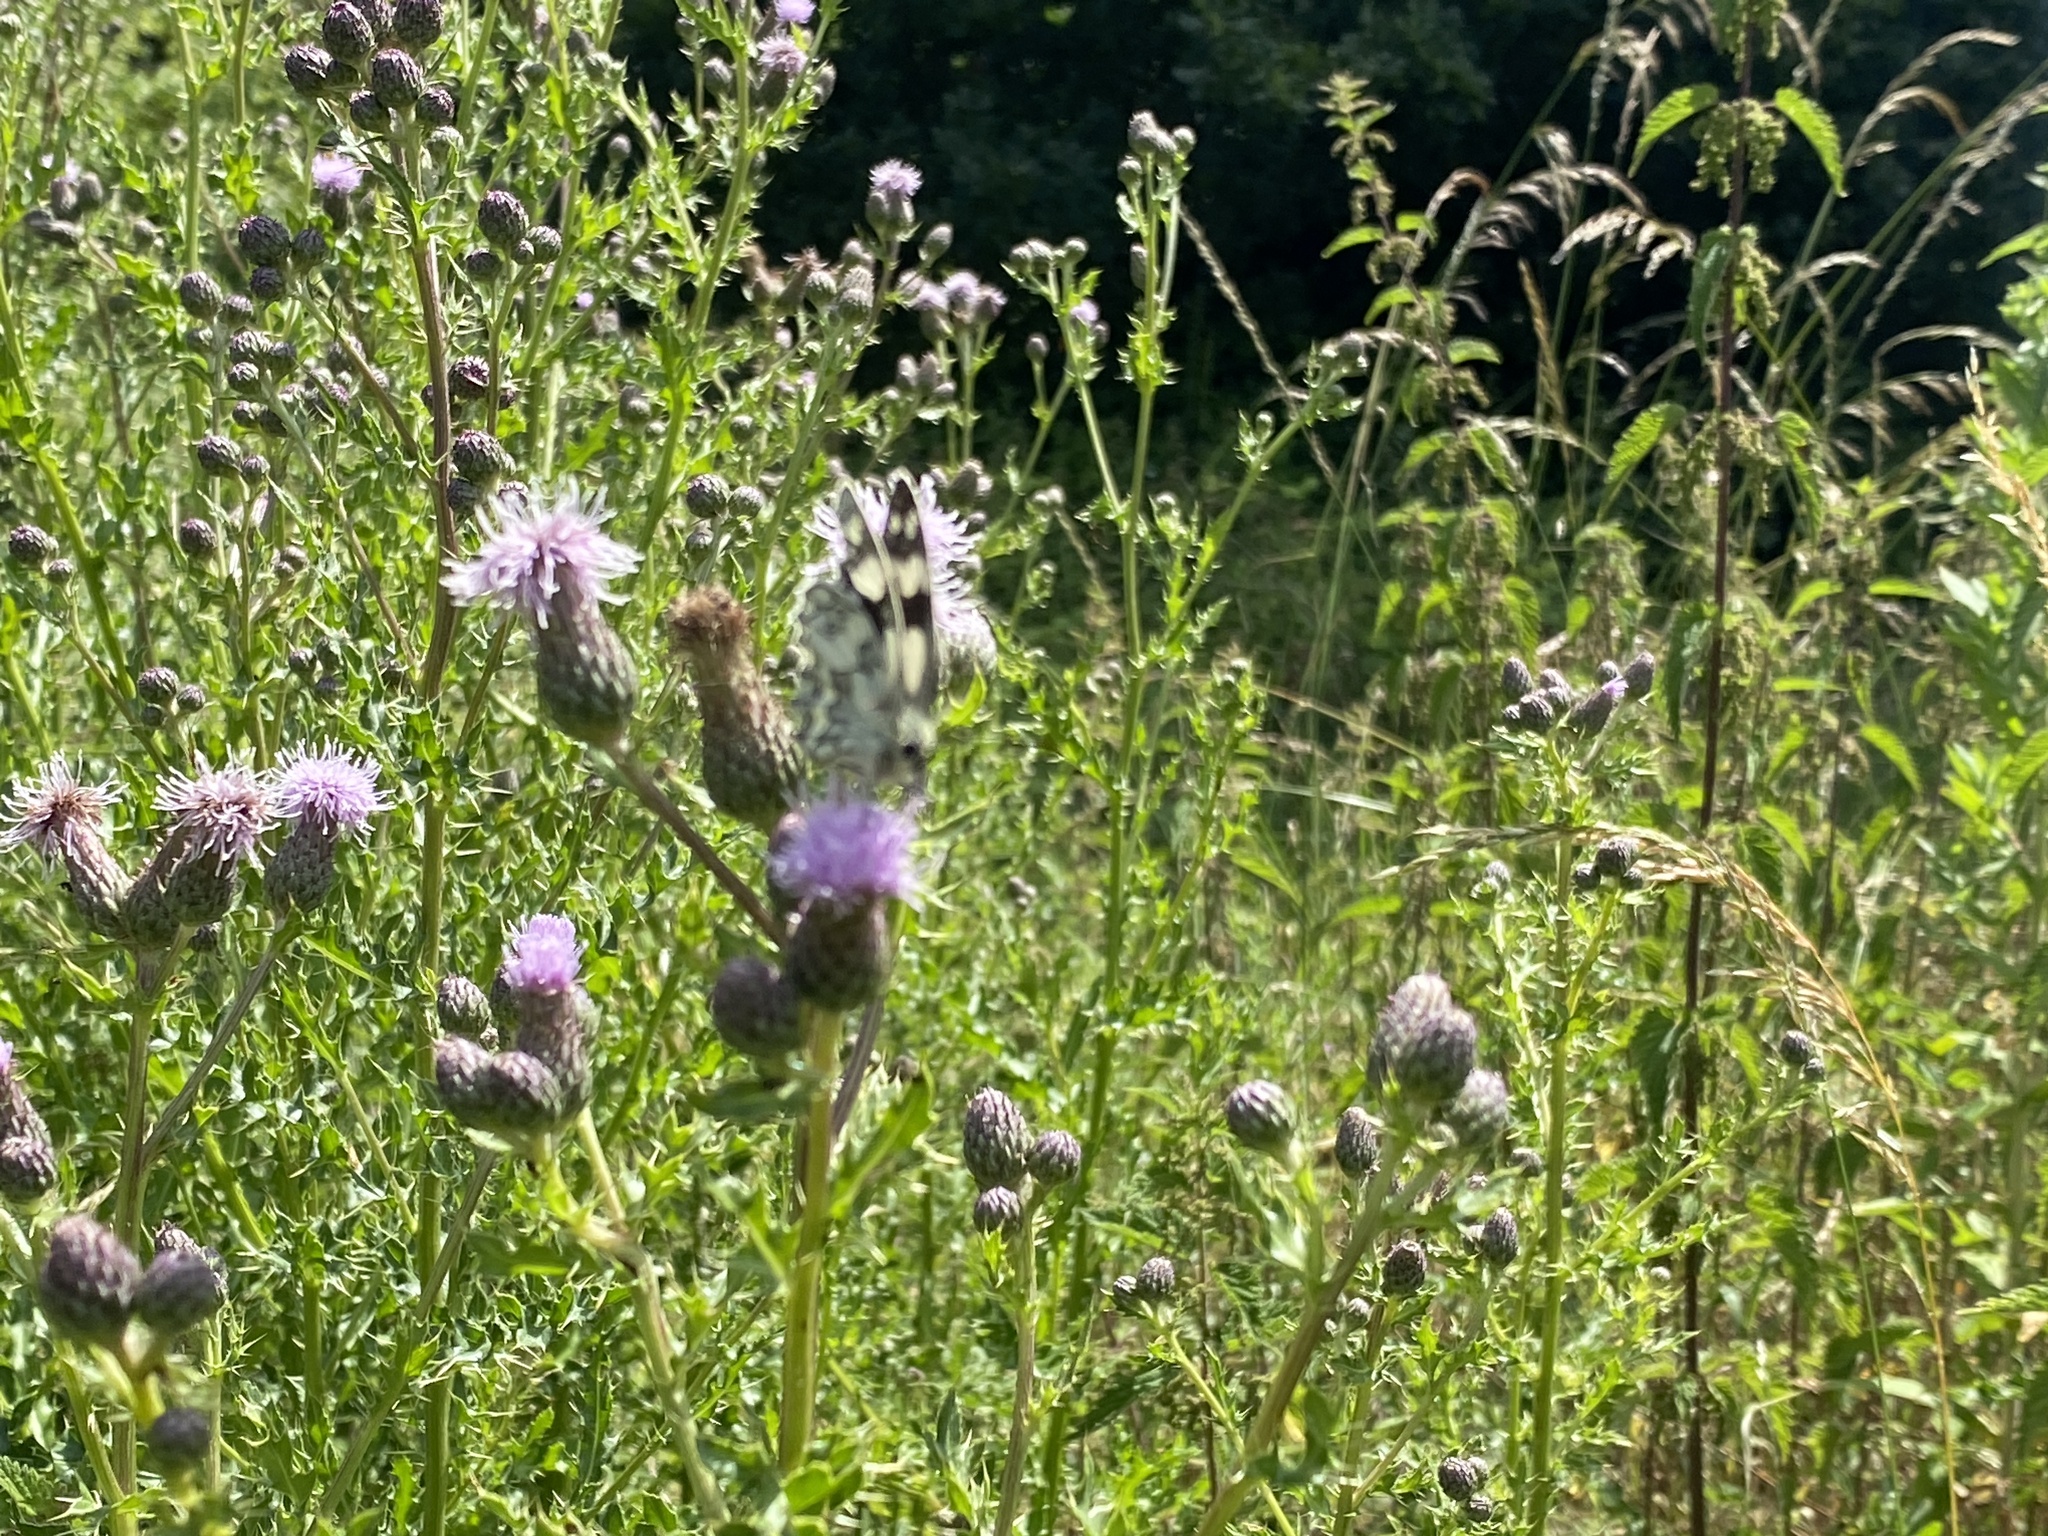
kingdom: Animalia
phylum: Arthropoda
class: Insecta
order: Lepidoptera
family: Nymphalidae
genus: Melanargia
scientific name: Melanargia galathea
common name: Marbled white
